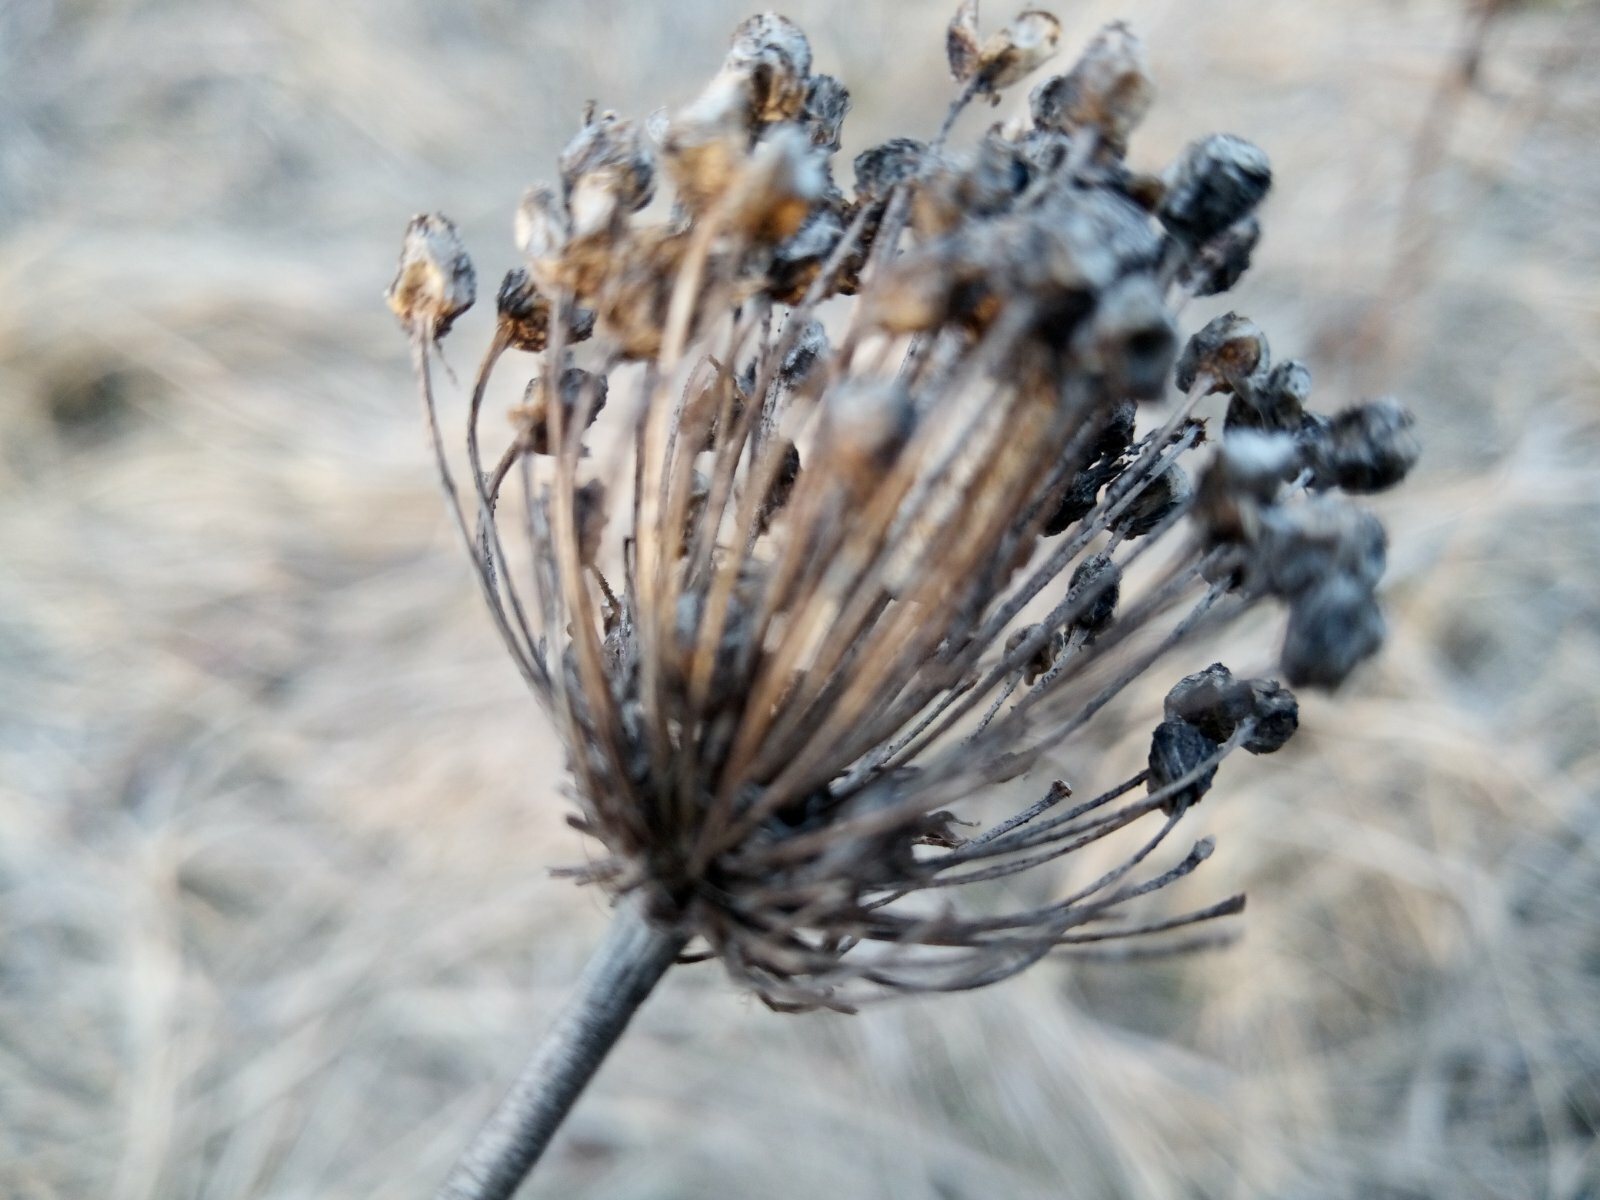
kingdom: Plantae
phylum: Tracheophyta
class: Liliopsida
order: Asparagales
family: Amaryllidaceae
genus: Allium
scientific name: Allium flavescens
